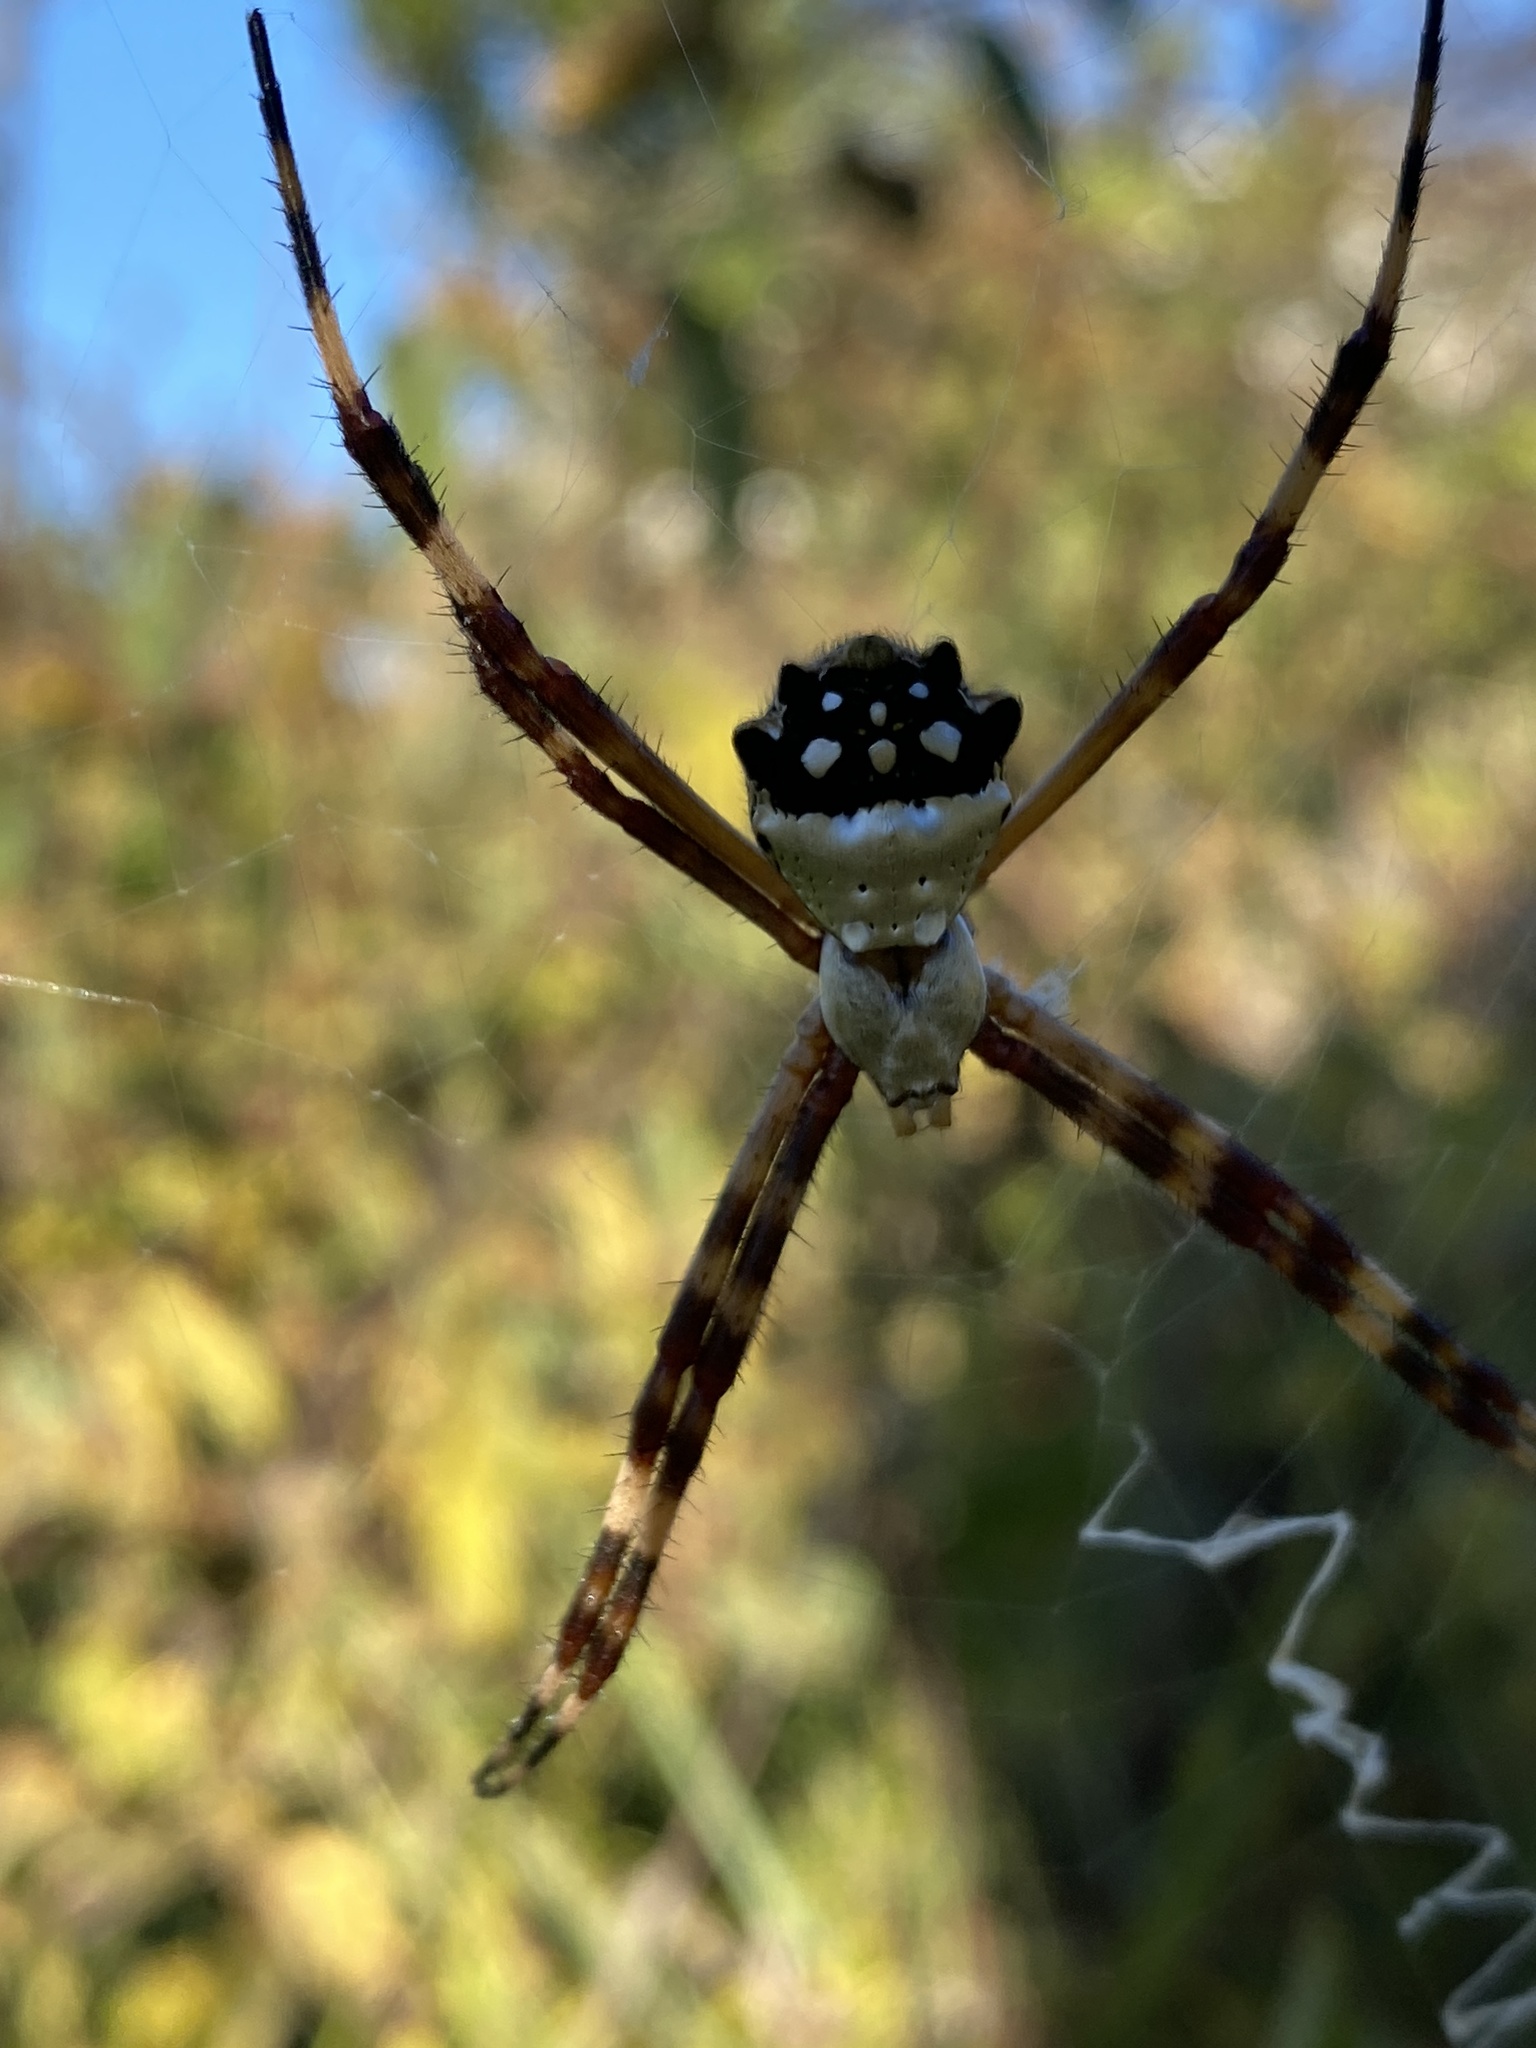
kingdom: Animalia
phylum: Arthropoda
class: Arachnida
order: Araneae
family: Araneidae
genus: Argiope
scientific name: Argiope argentata
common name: Orb weavers
